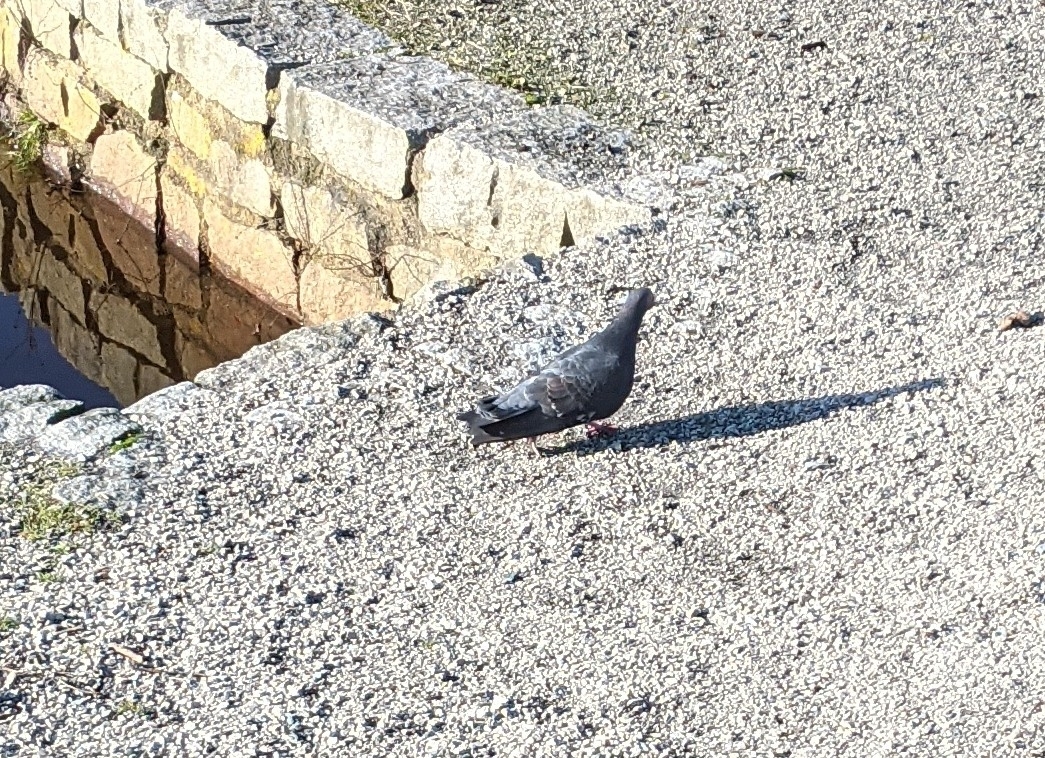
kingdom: Animalia
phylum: Chordata
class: Aves
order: Columbiformes
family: Columbidae
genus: Columba
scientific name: Columba livia
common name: Rock pigeon
